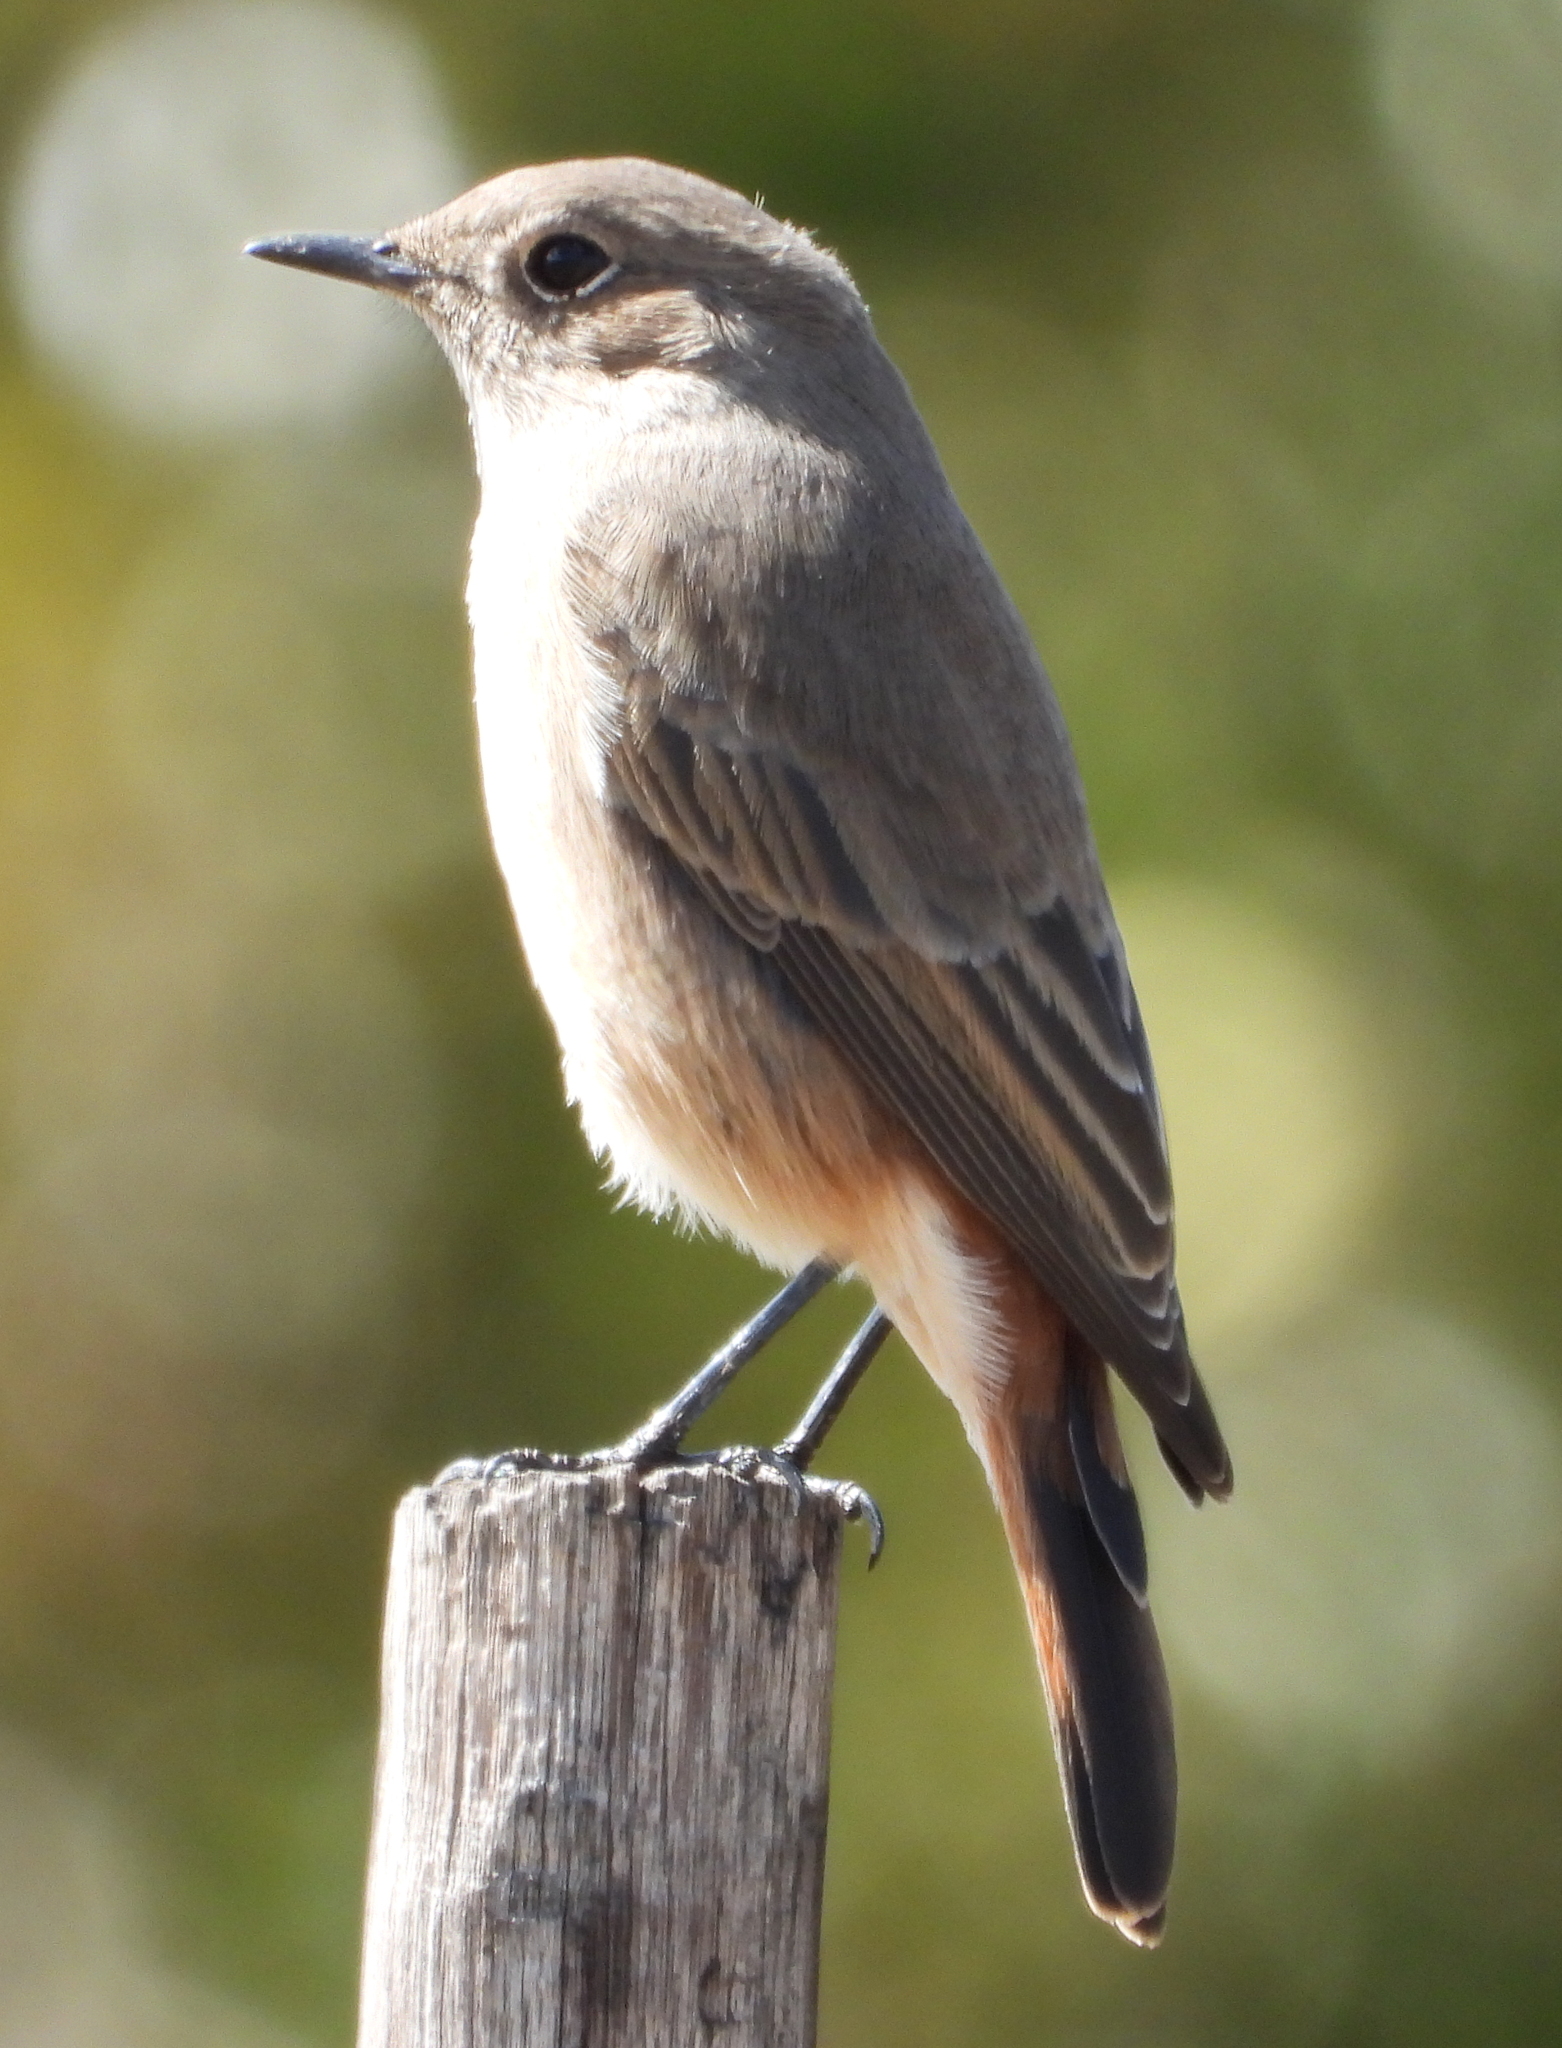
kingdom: Animalia
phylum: Chordata
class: Aves
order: Passeriformes
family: Muscicapidae
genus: Oenanthe
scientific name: Oenanthe familiaris
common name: Familiar chat
